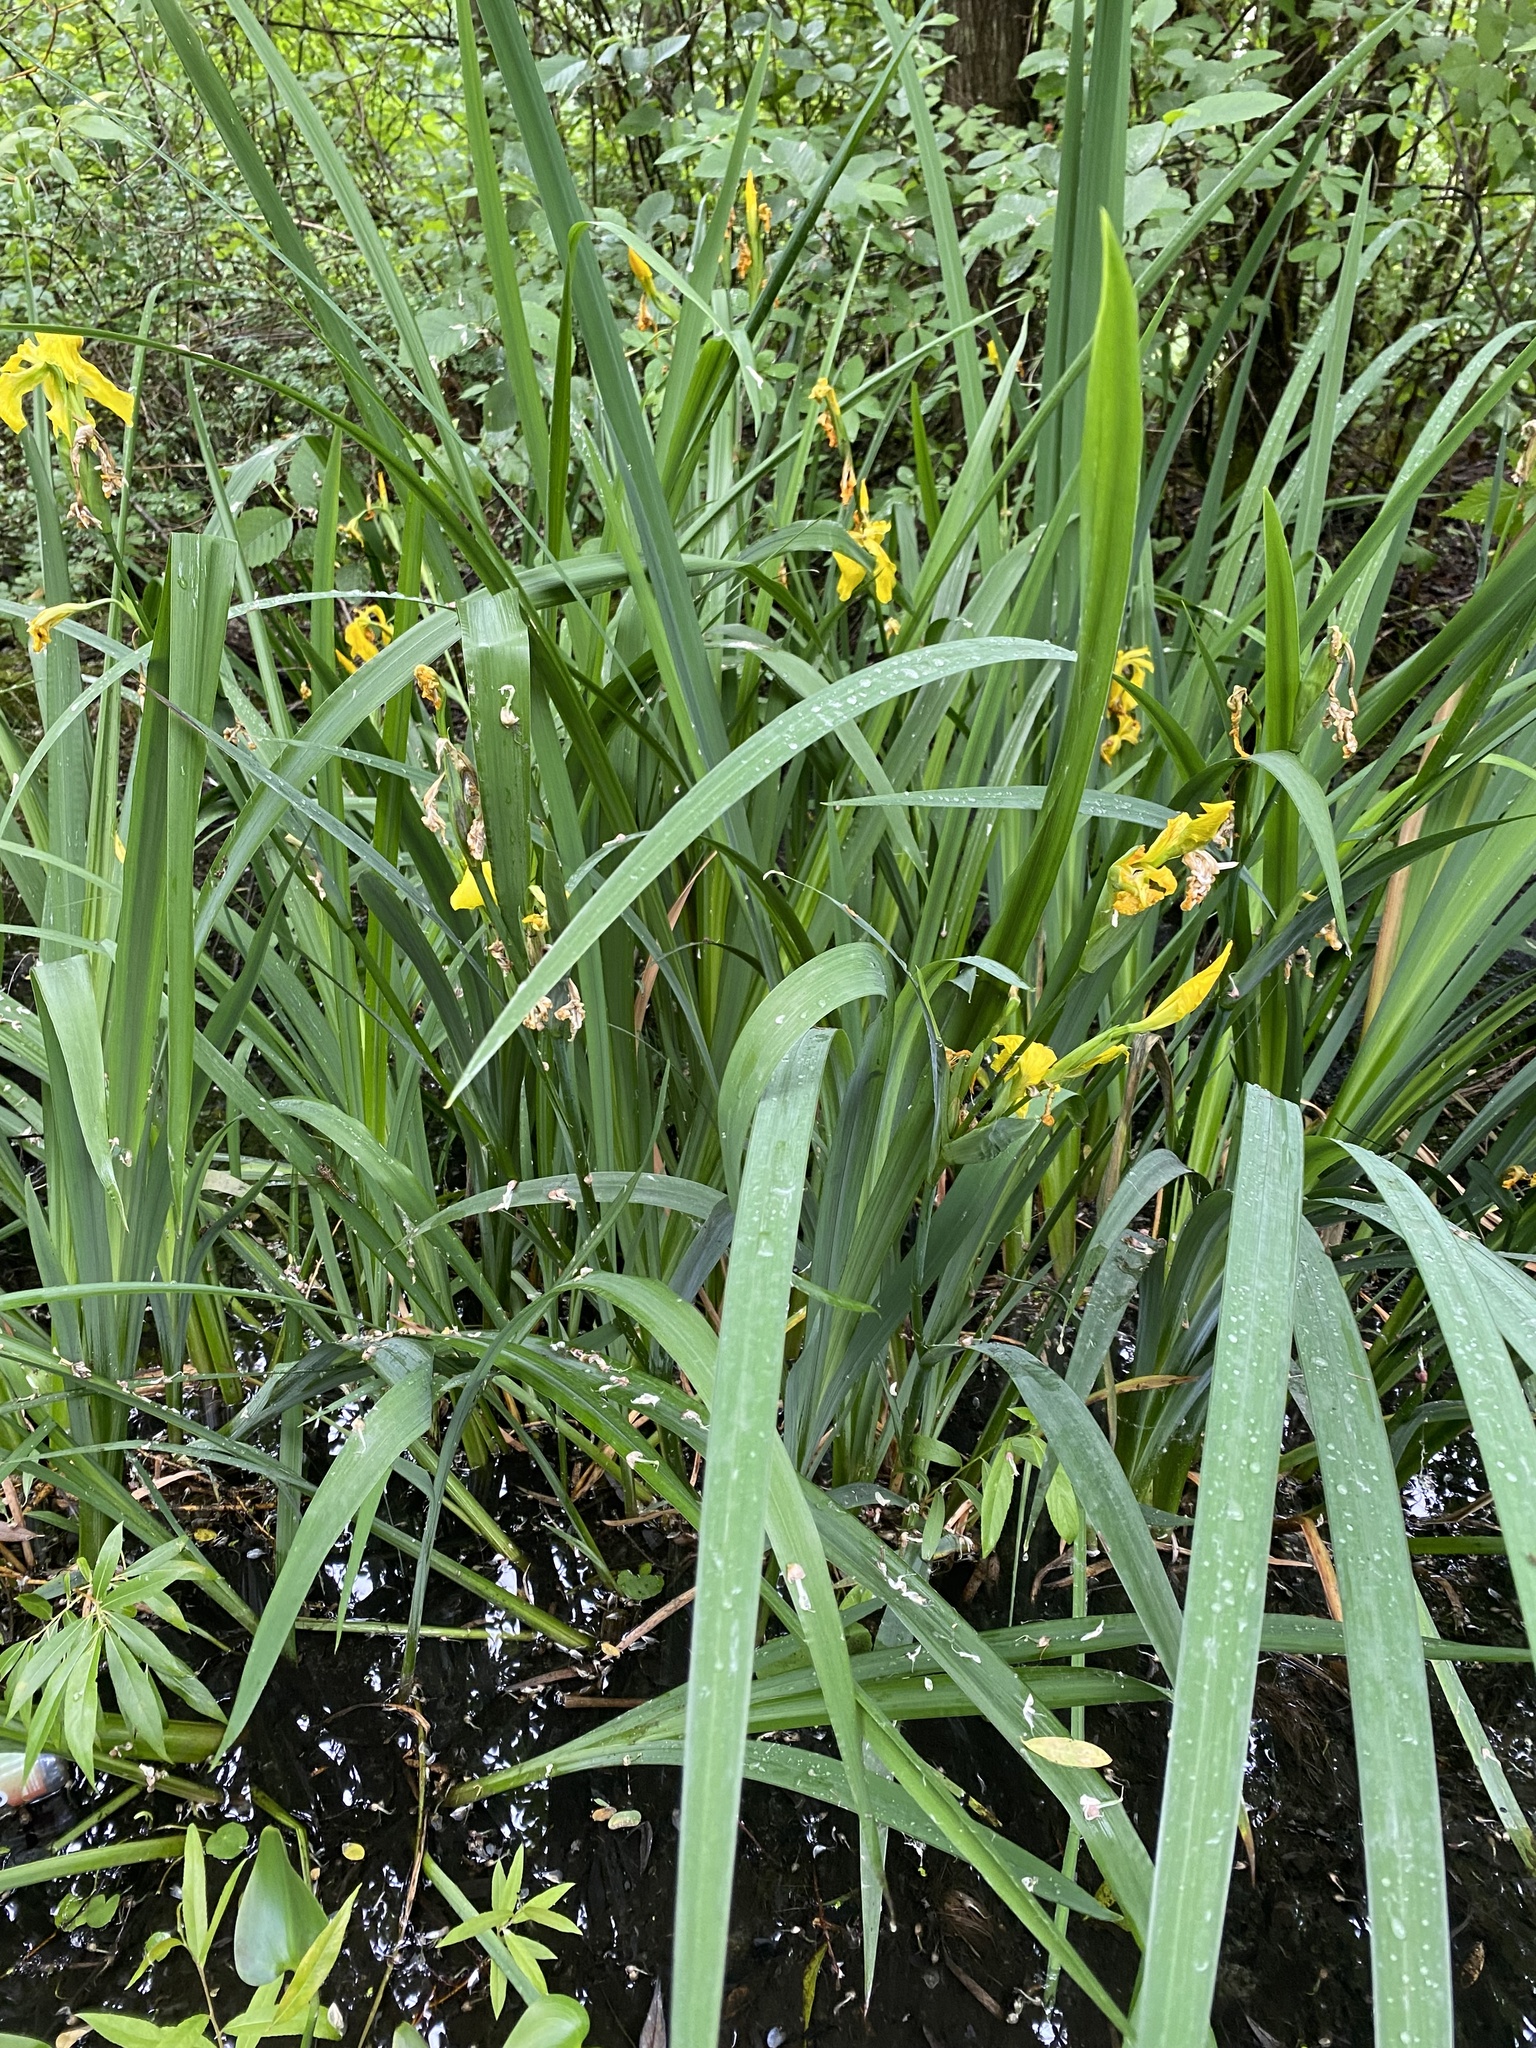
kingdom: Plantae
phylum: Tracheophyta
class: Liliopsida
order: Asparagales
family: Iridaceae
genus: Iris
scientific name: Iris pseudacorus
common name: Yellow flag
